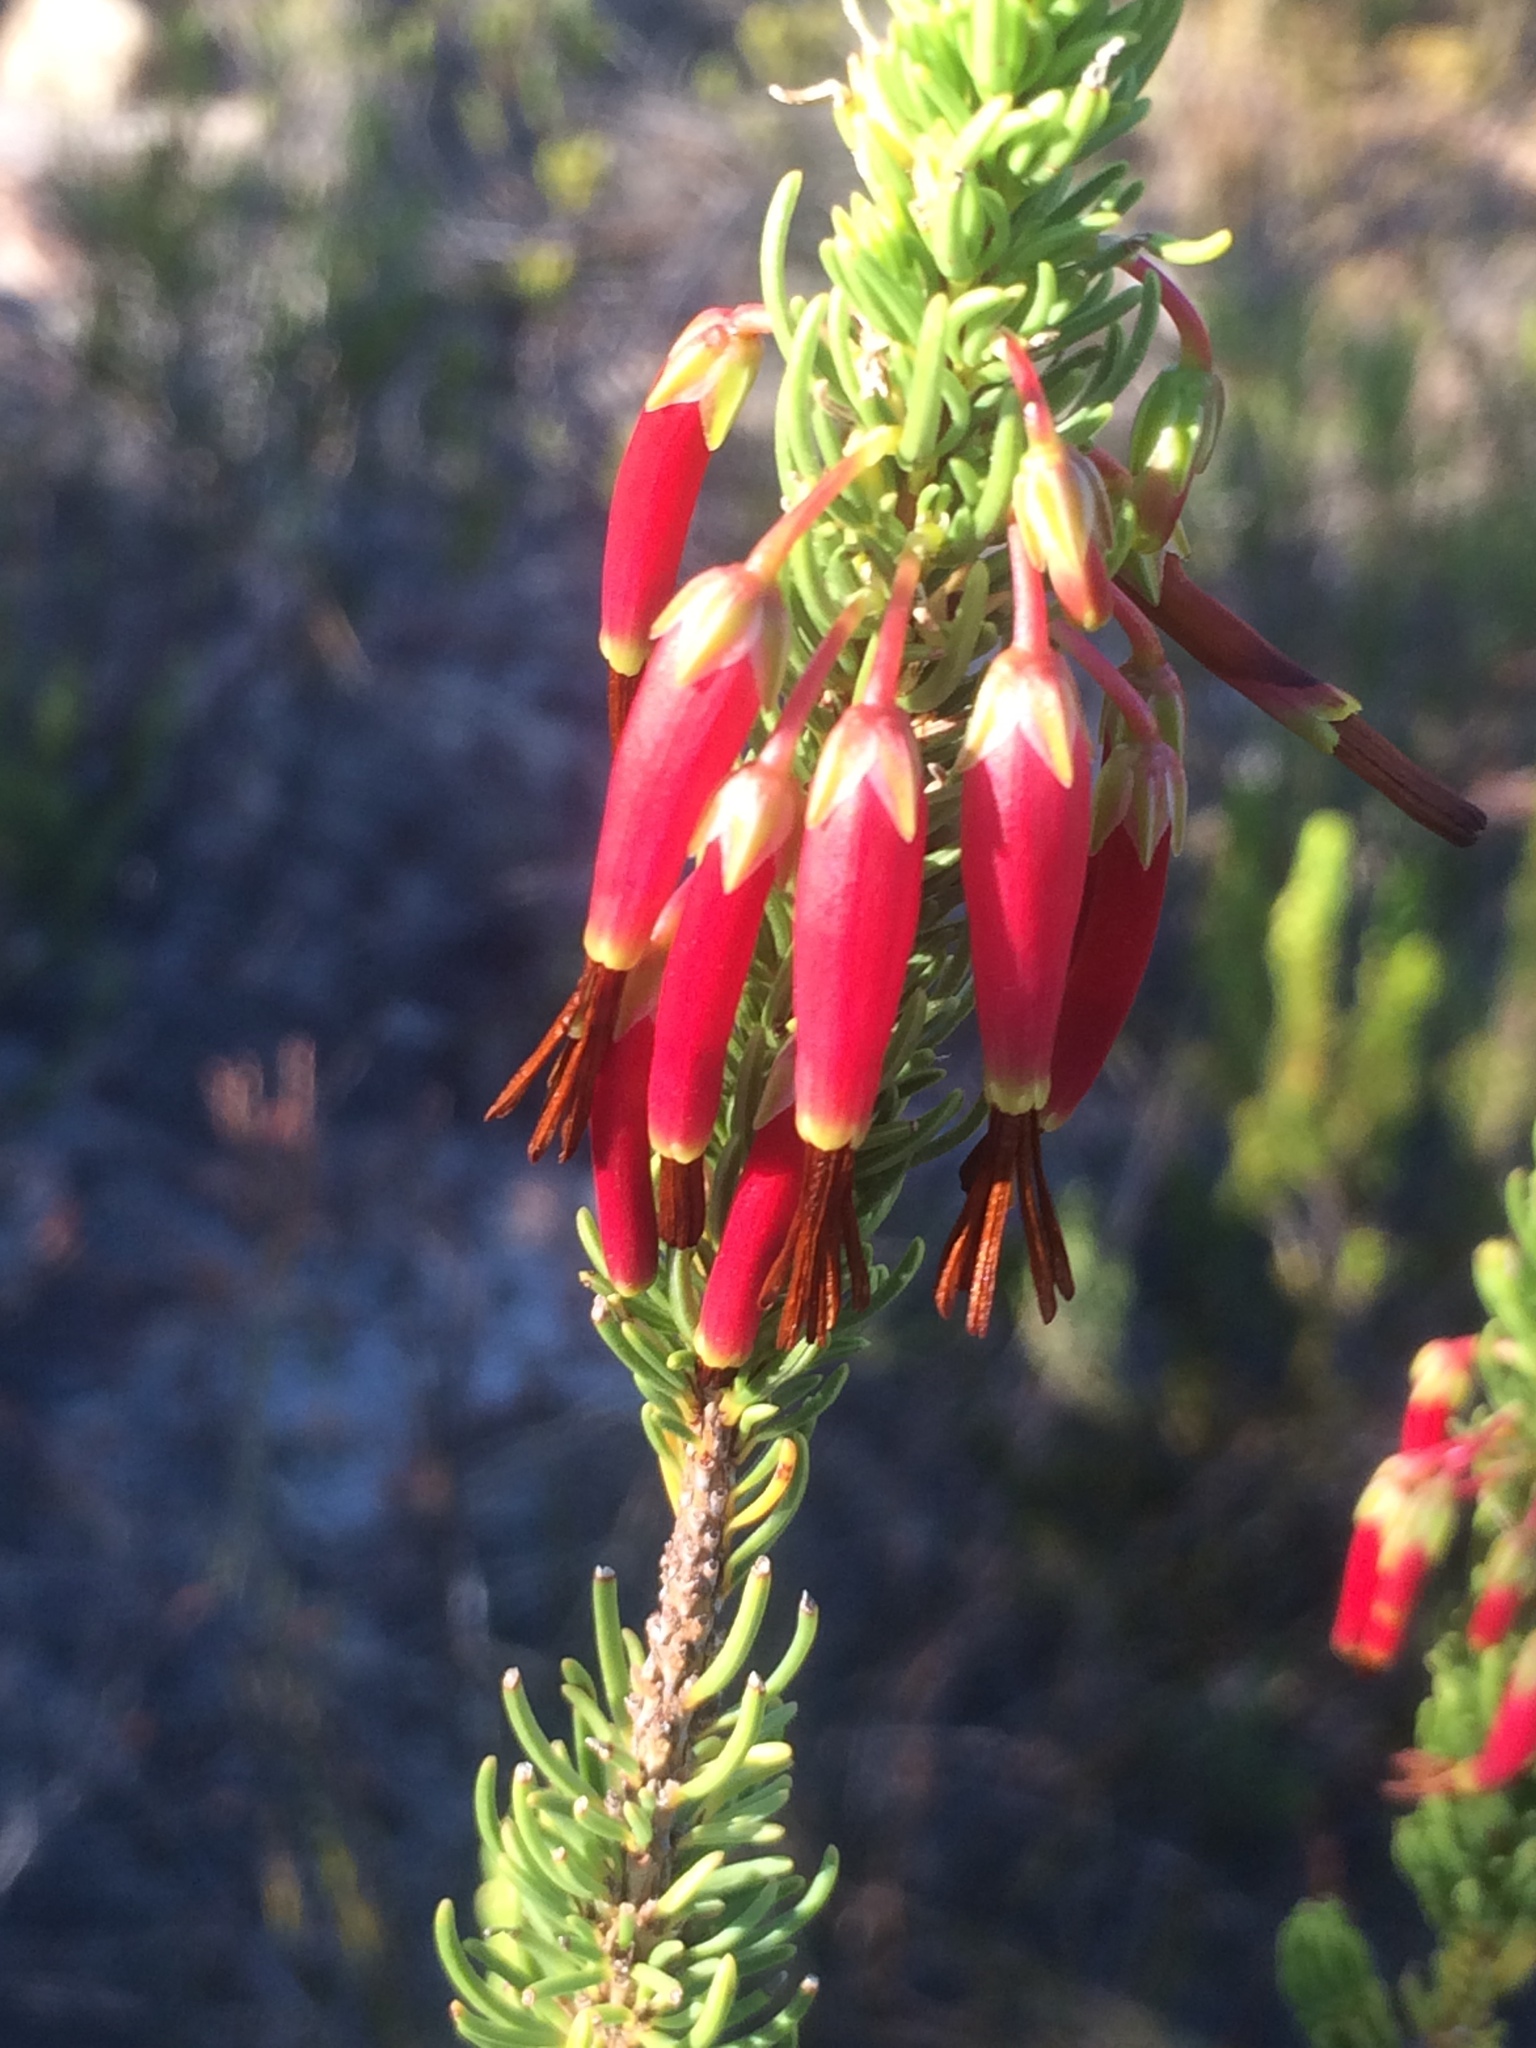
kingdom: Plantae
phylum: Tracheophyta
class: Magnoliopsida
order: Ericales
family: Ericaceae
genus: Erica
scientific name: Erica plukenetii
